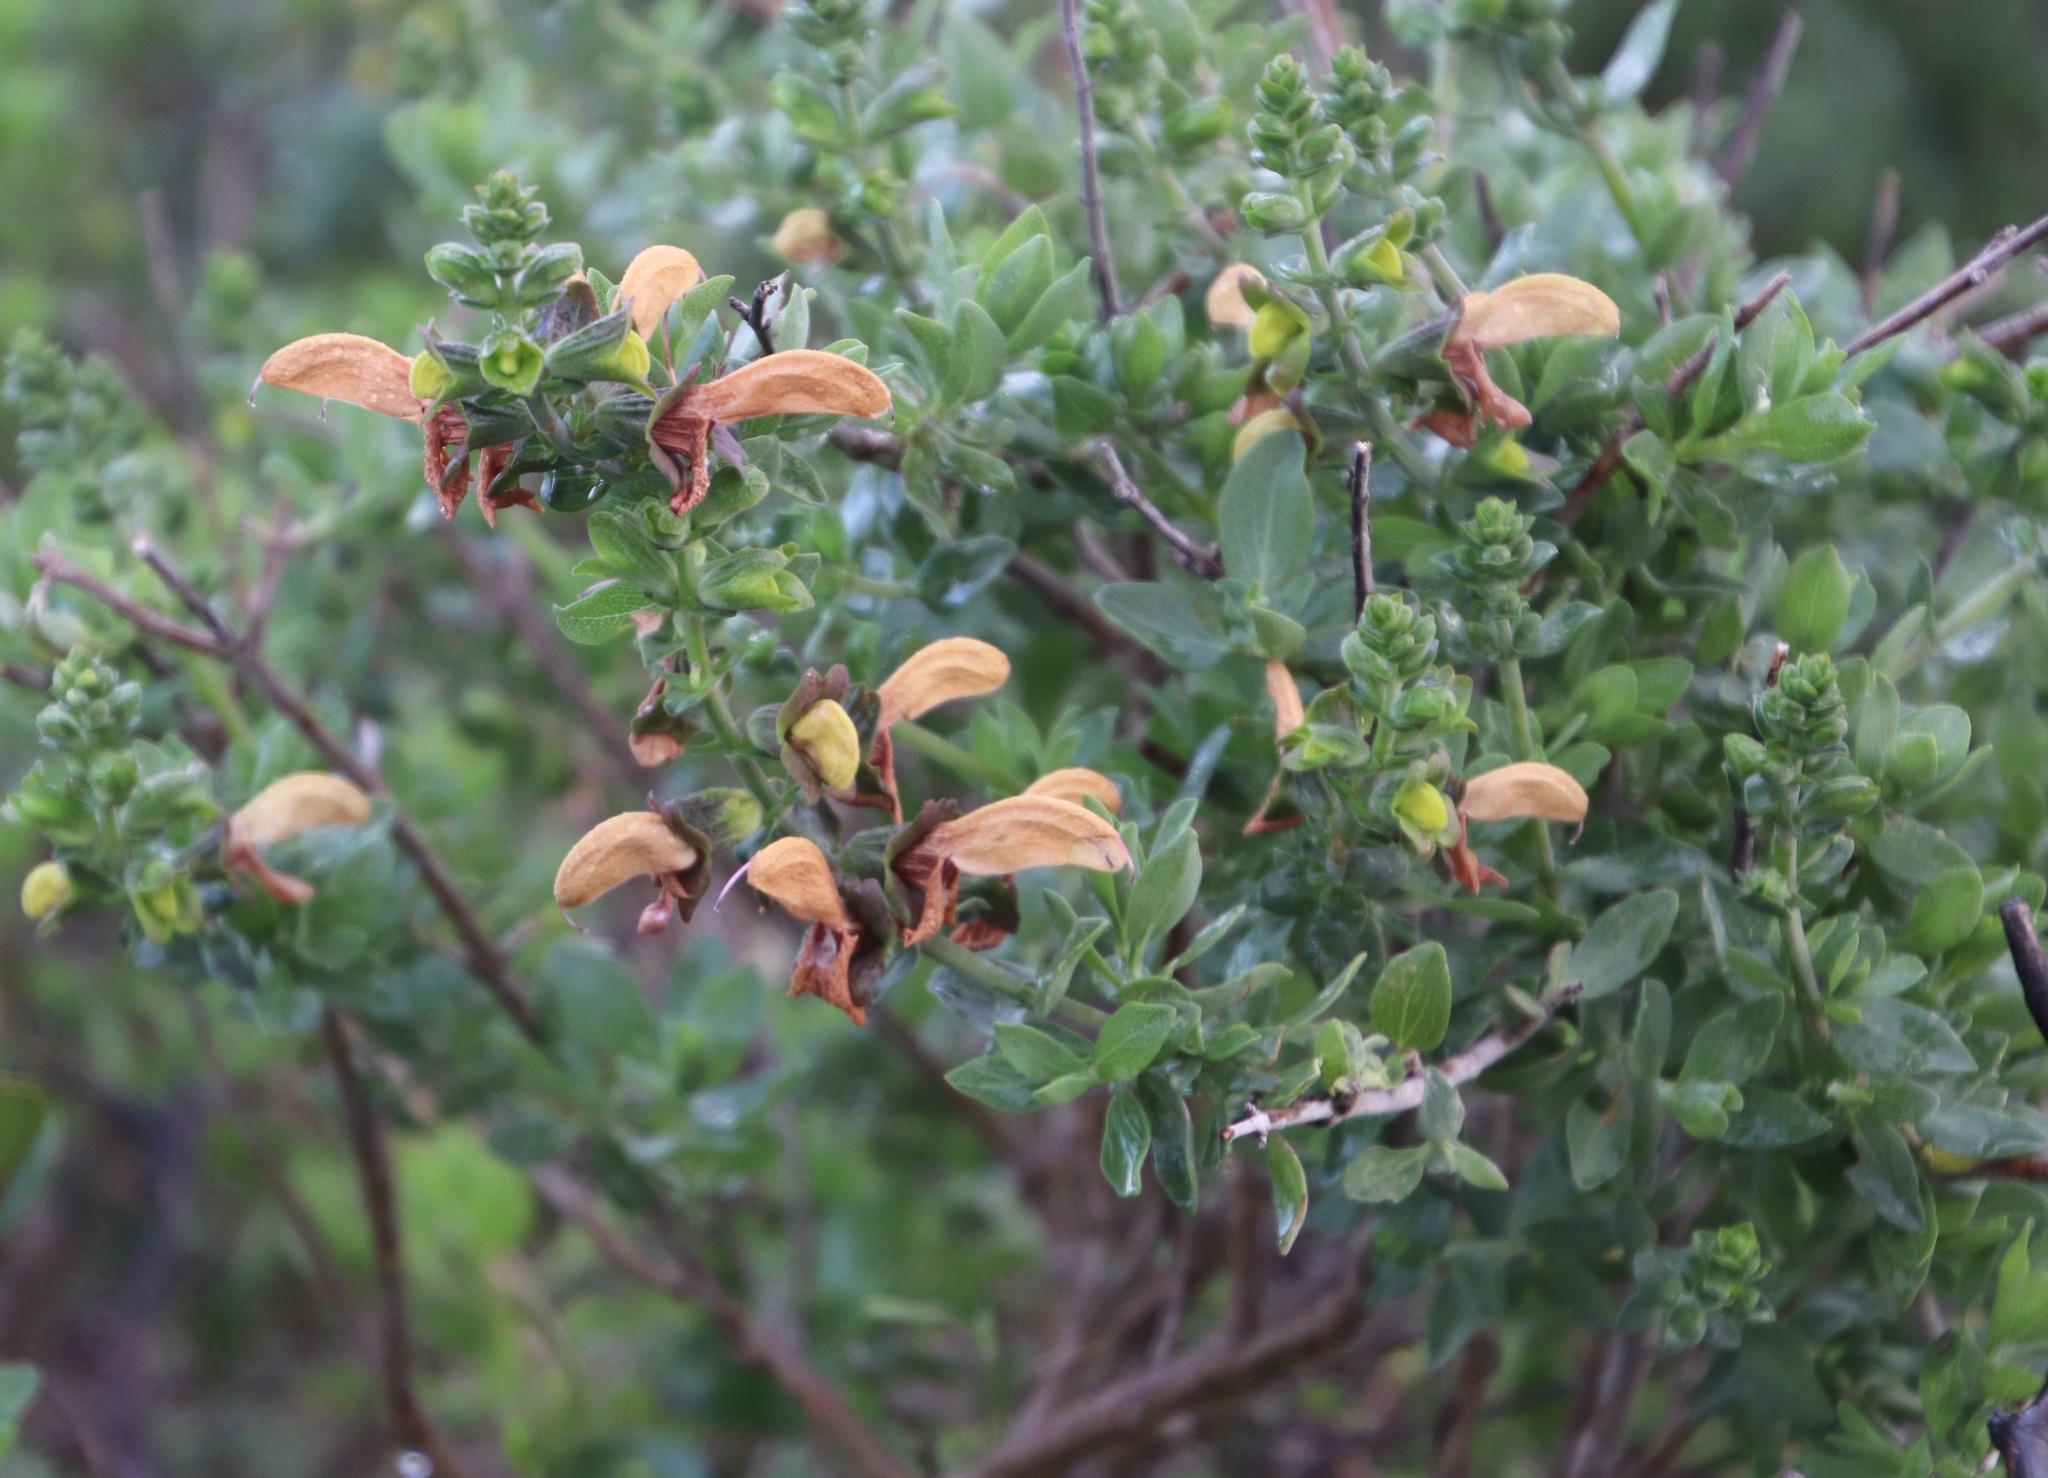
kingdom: Plantae
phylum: Tracheophyta
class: Magnoliopsida
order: Lamiales
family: Lamiaceae
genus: Salvia
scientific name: Salvia aurea
